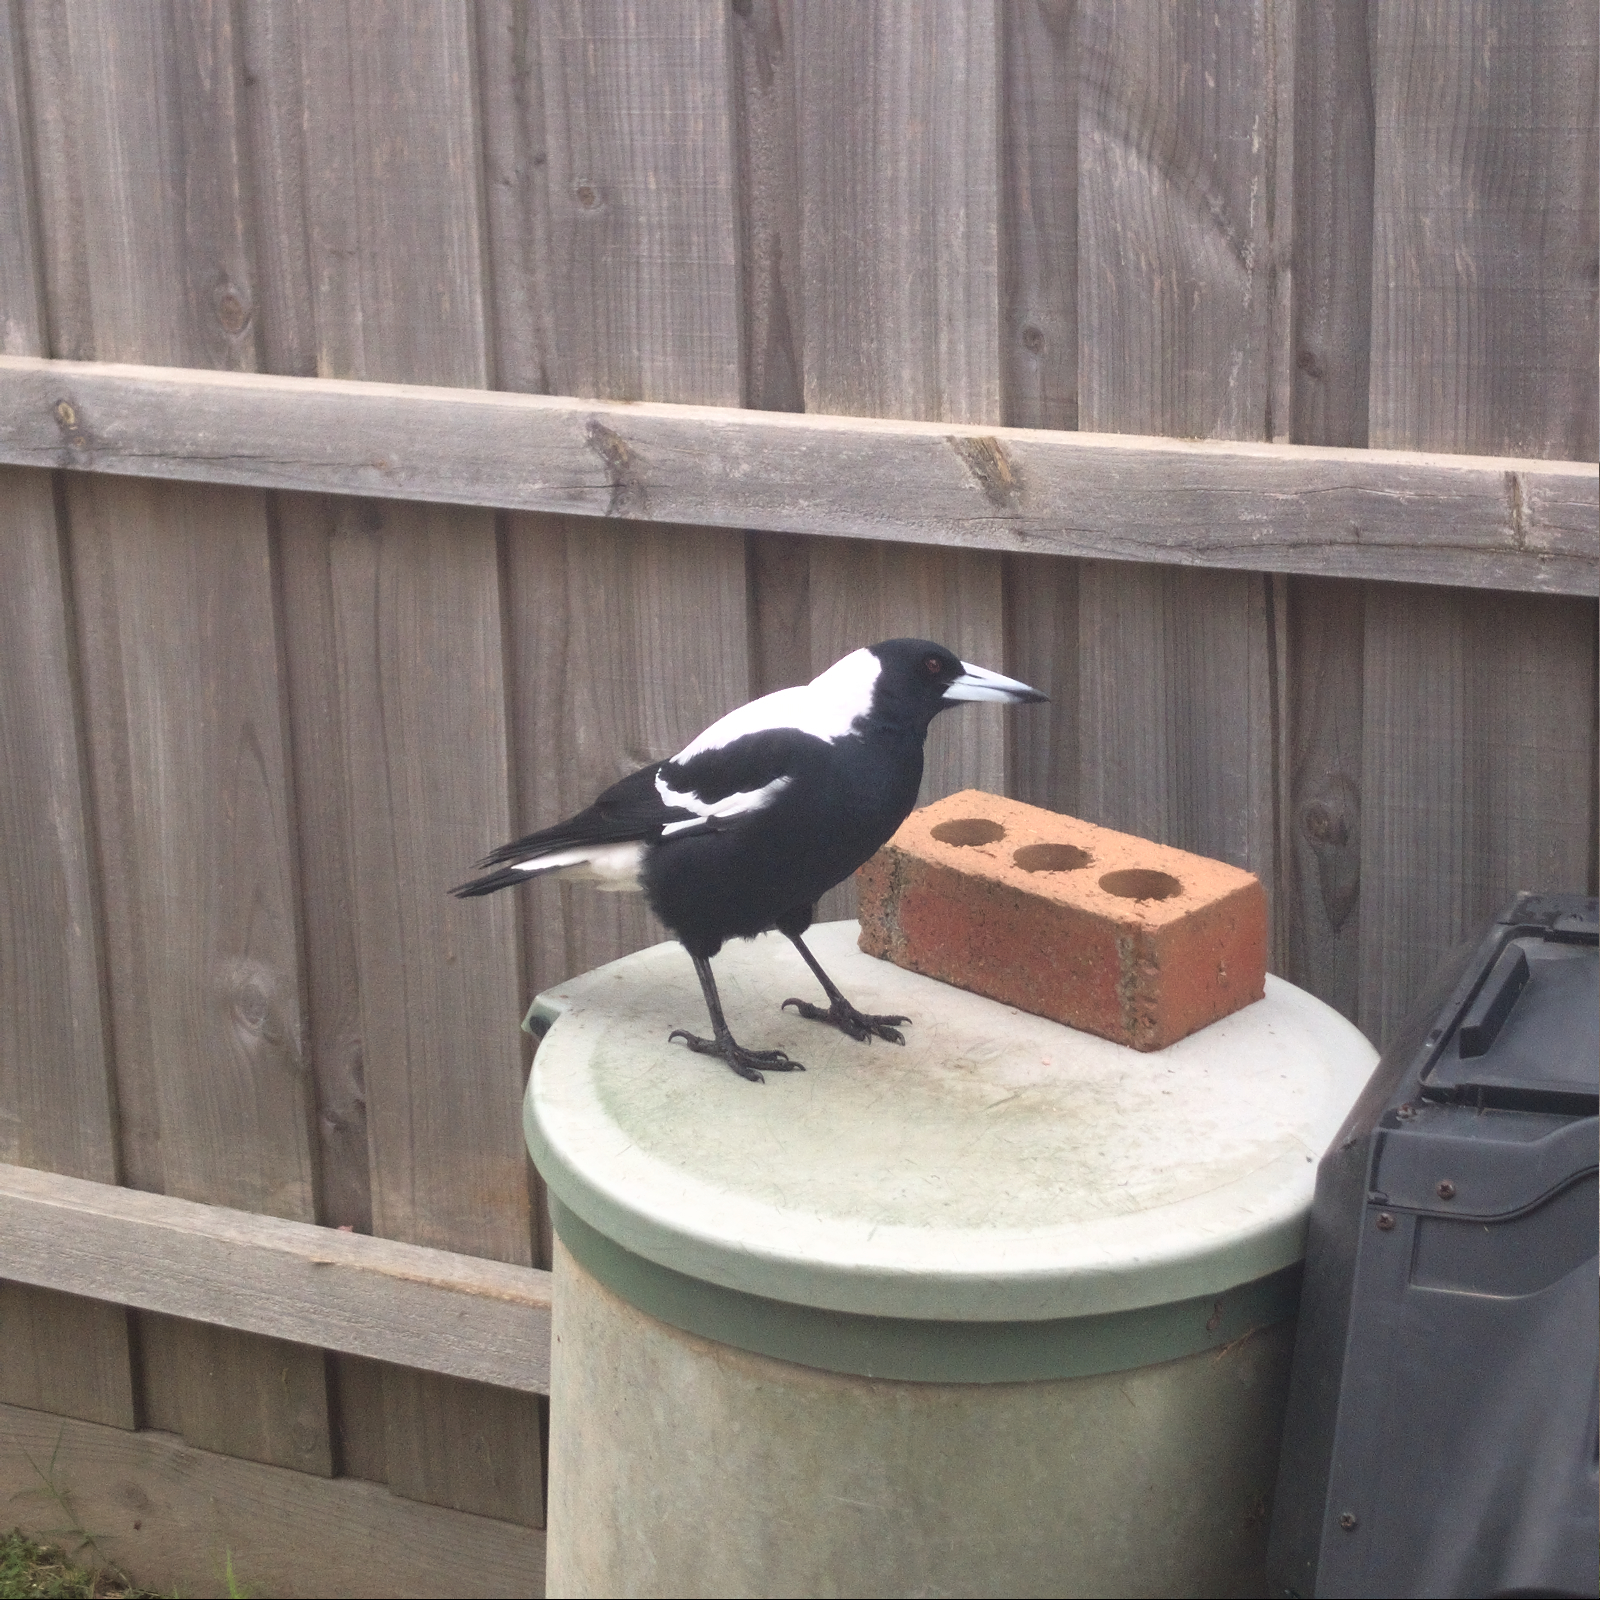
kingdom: Animalia
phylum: Chordata
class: Aves
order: Passeriformes
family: Cracticidae
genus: Gymnorhina
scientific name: Gymnorhina tibicen
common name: Australian magpie
